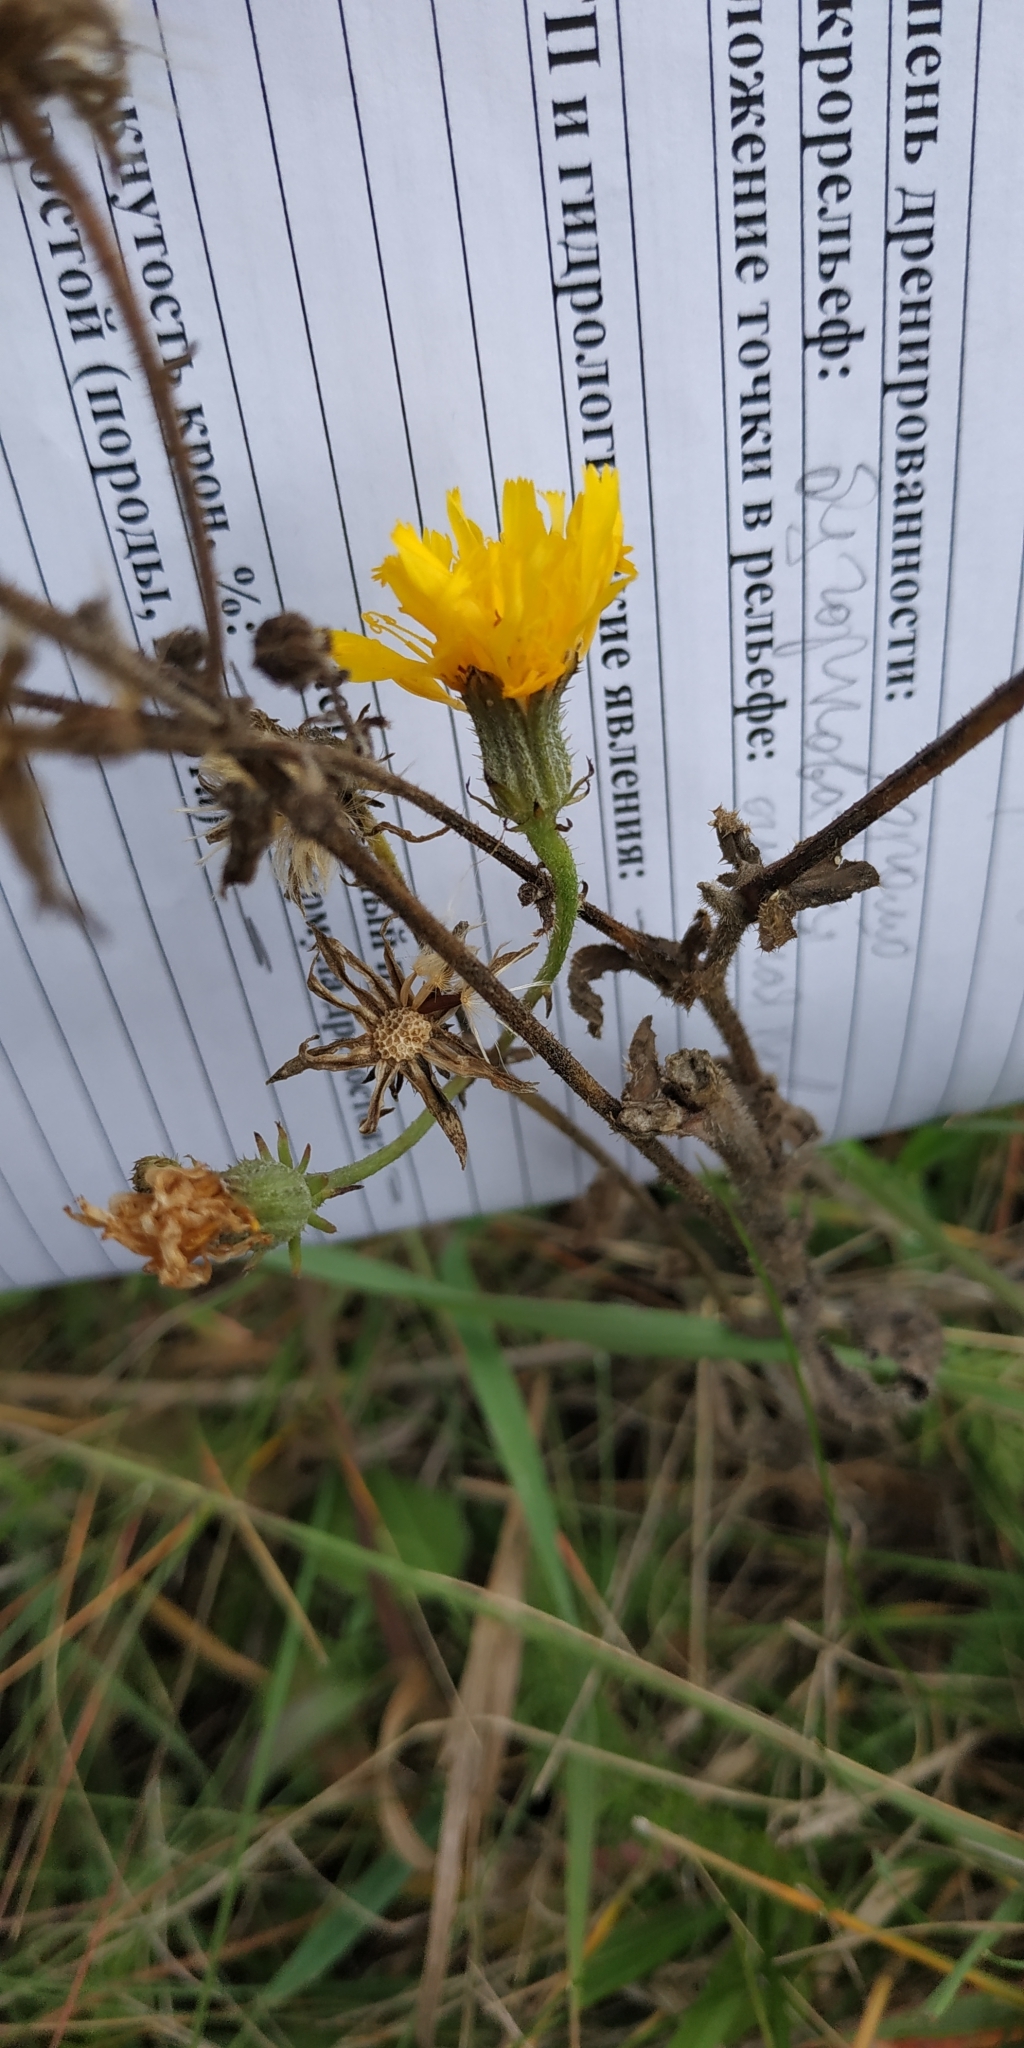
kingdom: Plantae
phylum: Tracheophyta
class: Magnoliopsida
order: Asterales
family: Asteraceae
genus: Picris
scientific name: Picris hieracioides
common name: Hawkweed oxtongue
